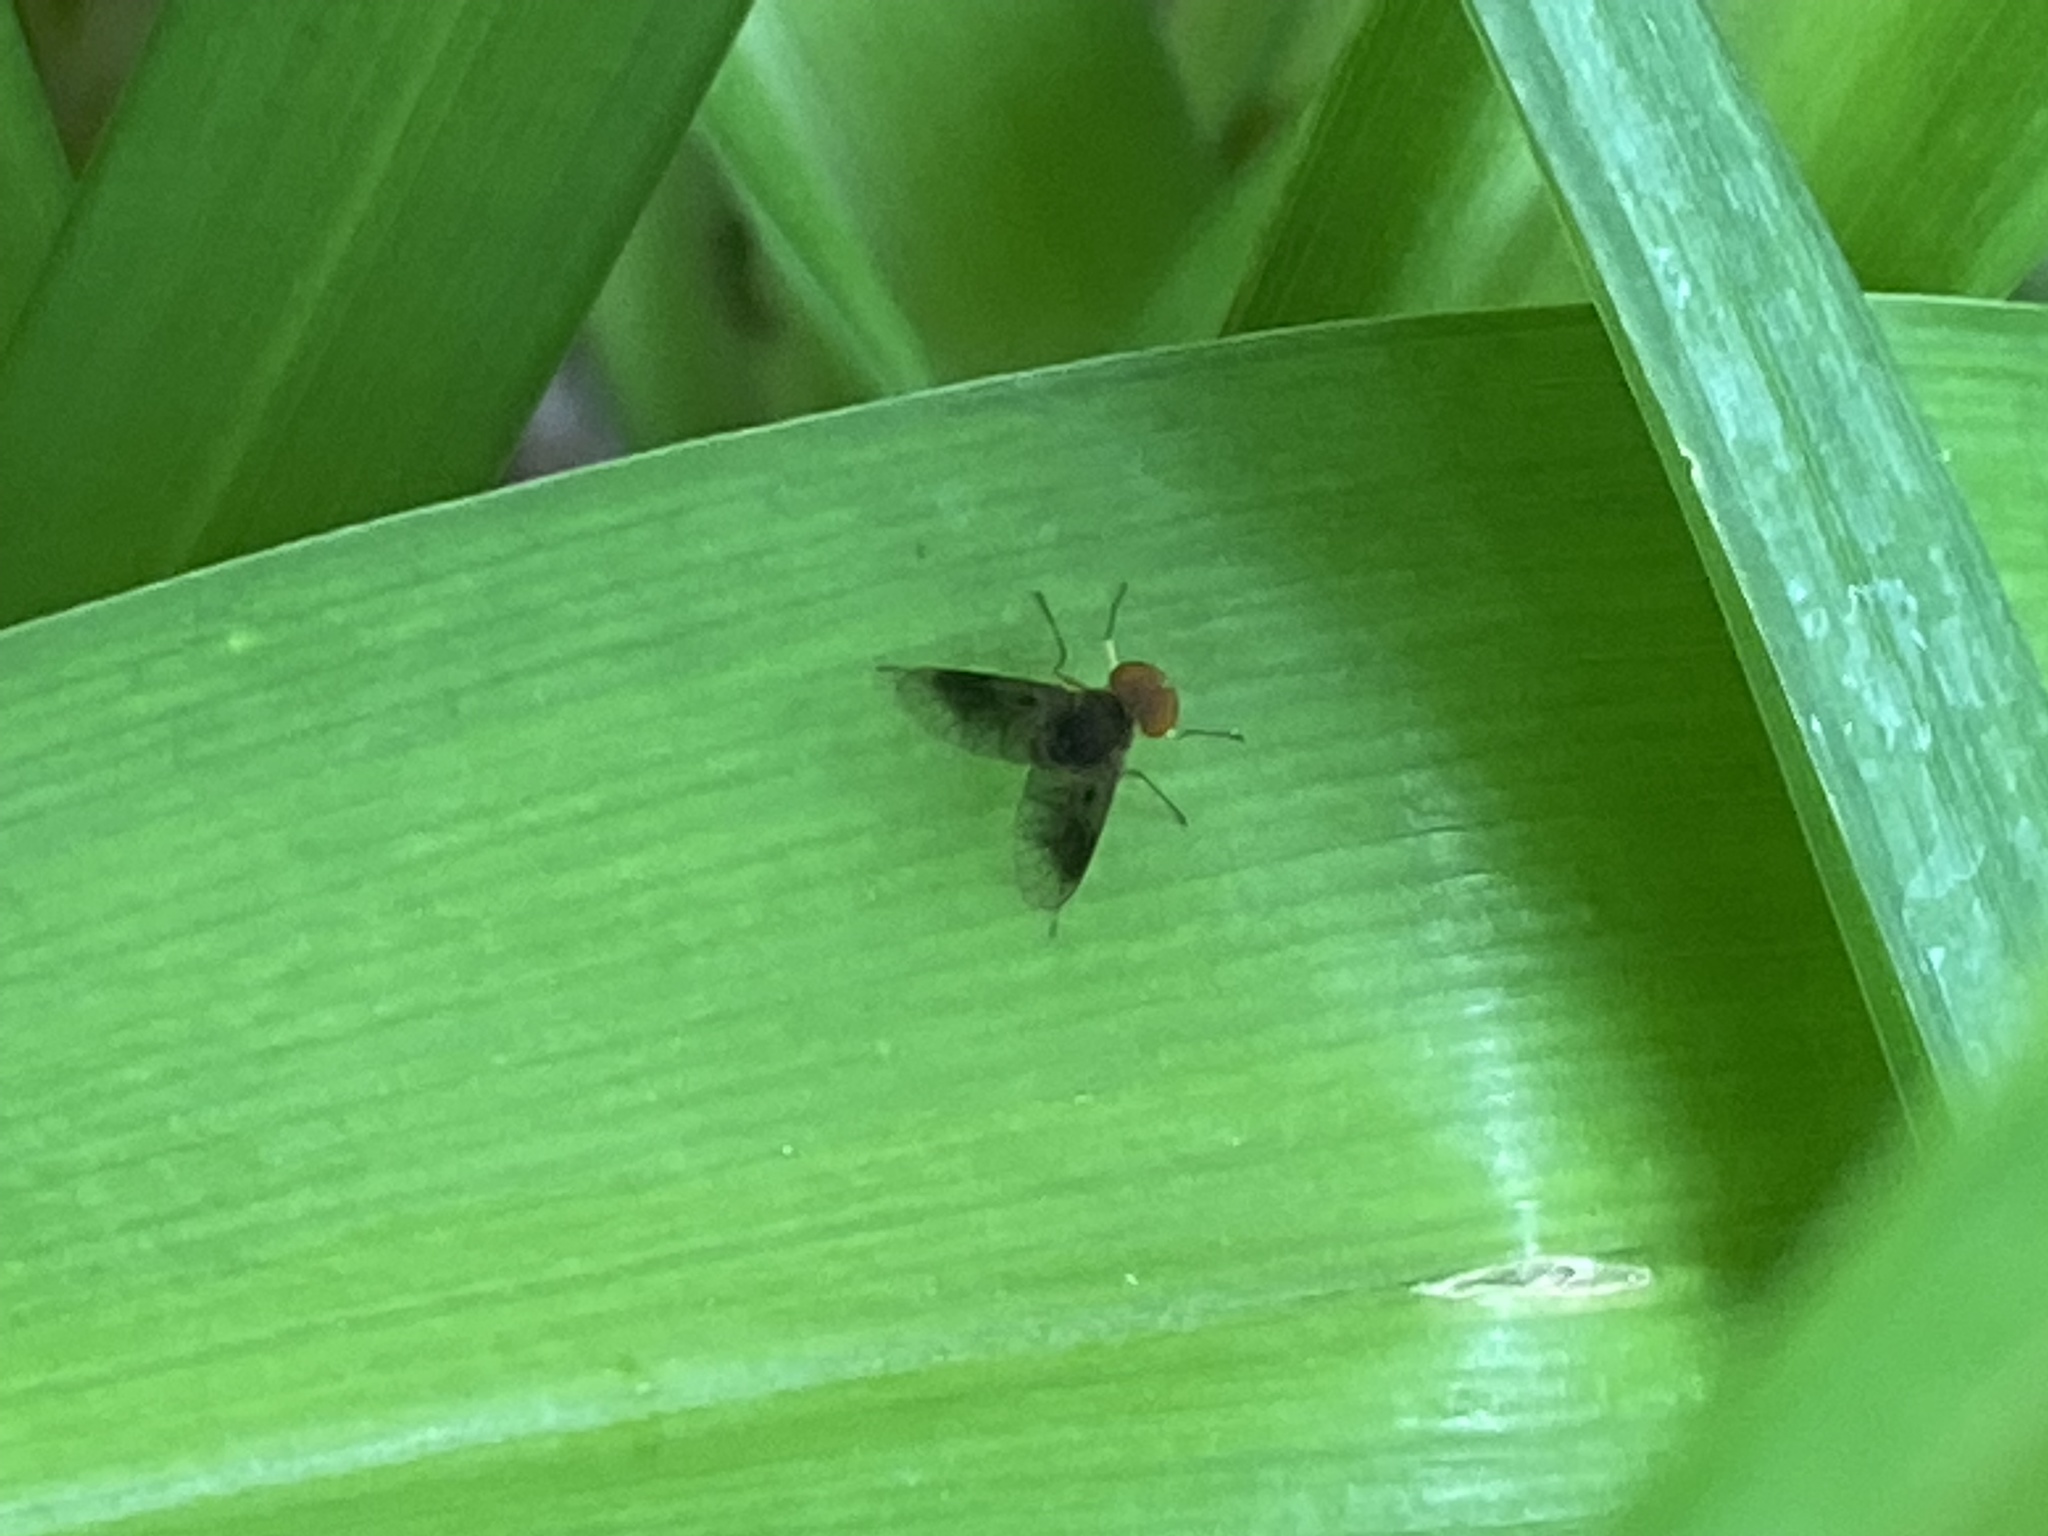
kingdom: Animalia
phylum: Arthropoda
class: Insecta
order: Diptera
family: Rhagionidae
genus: Chrysopilus
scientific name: Chrysopilus quadratus
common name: Quadrate snipe fly
